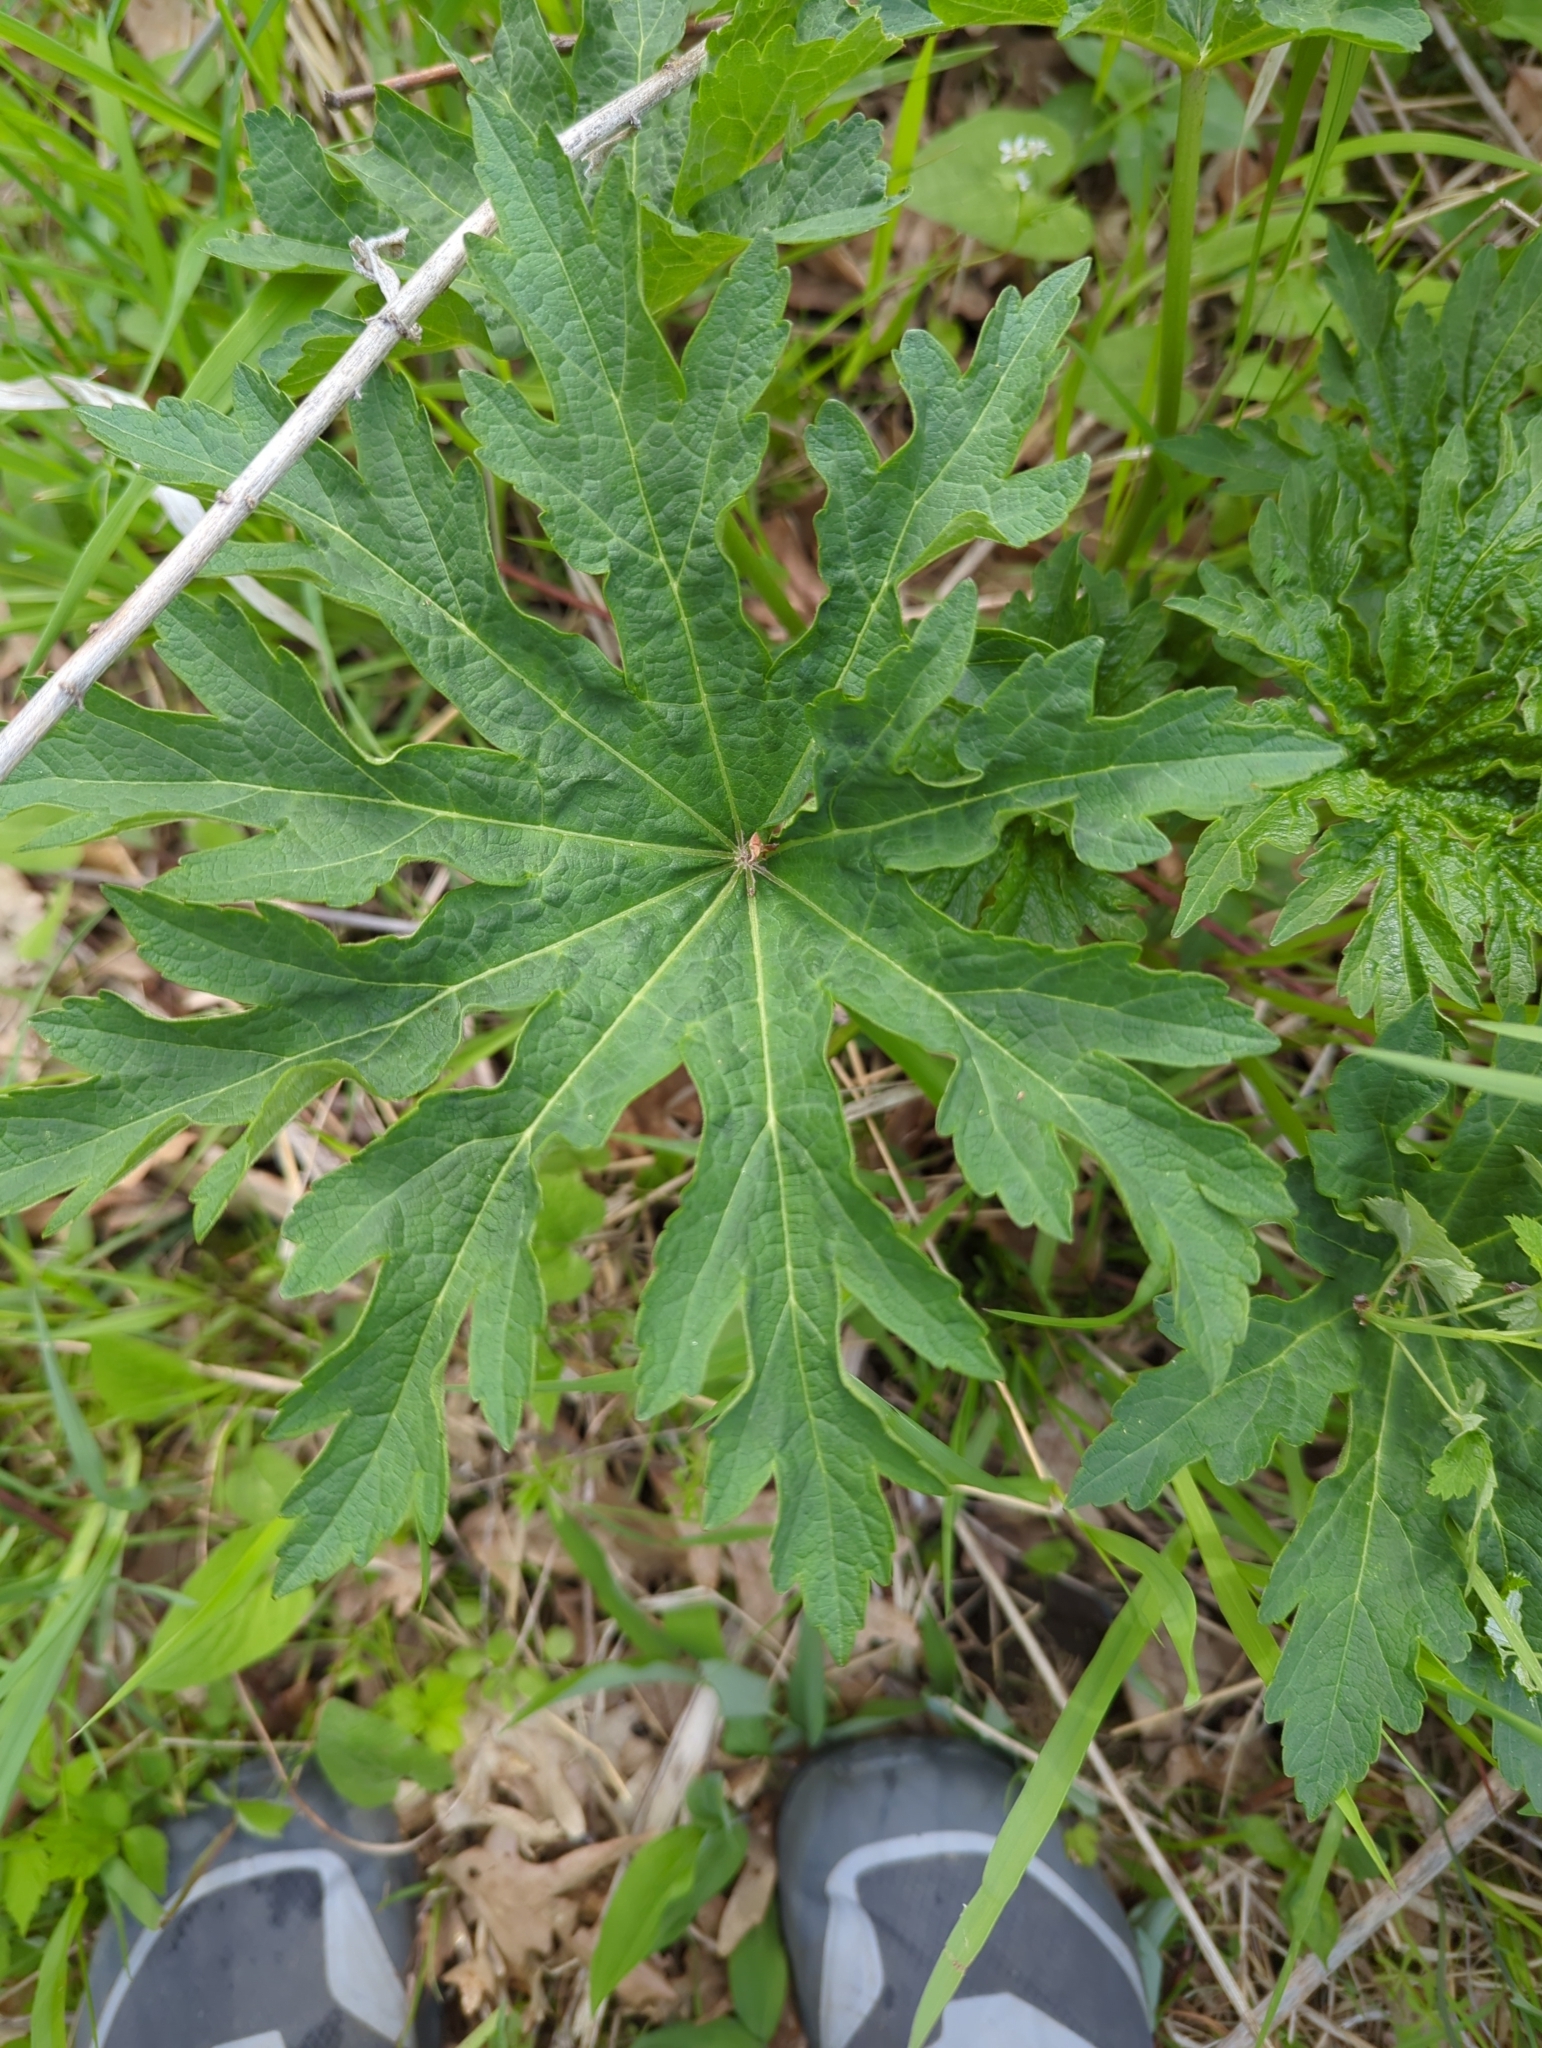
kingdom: Plantae
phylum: Tracheophyta
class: Magnoliopsida
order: Malvales
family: Malvaceae
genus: Napaea
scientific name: Napaea dioica
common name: Glade-mallow
